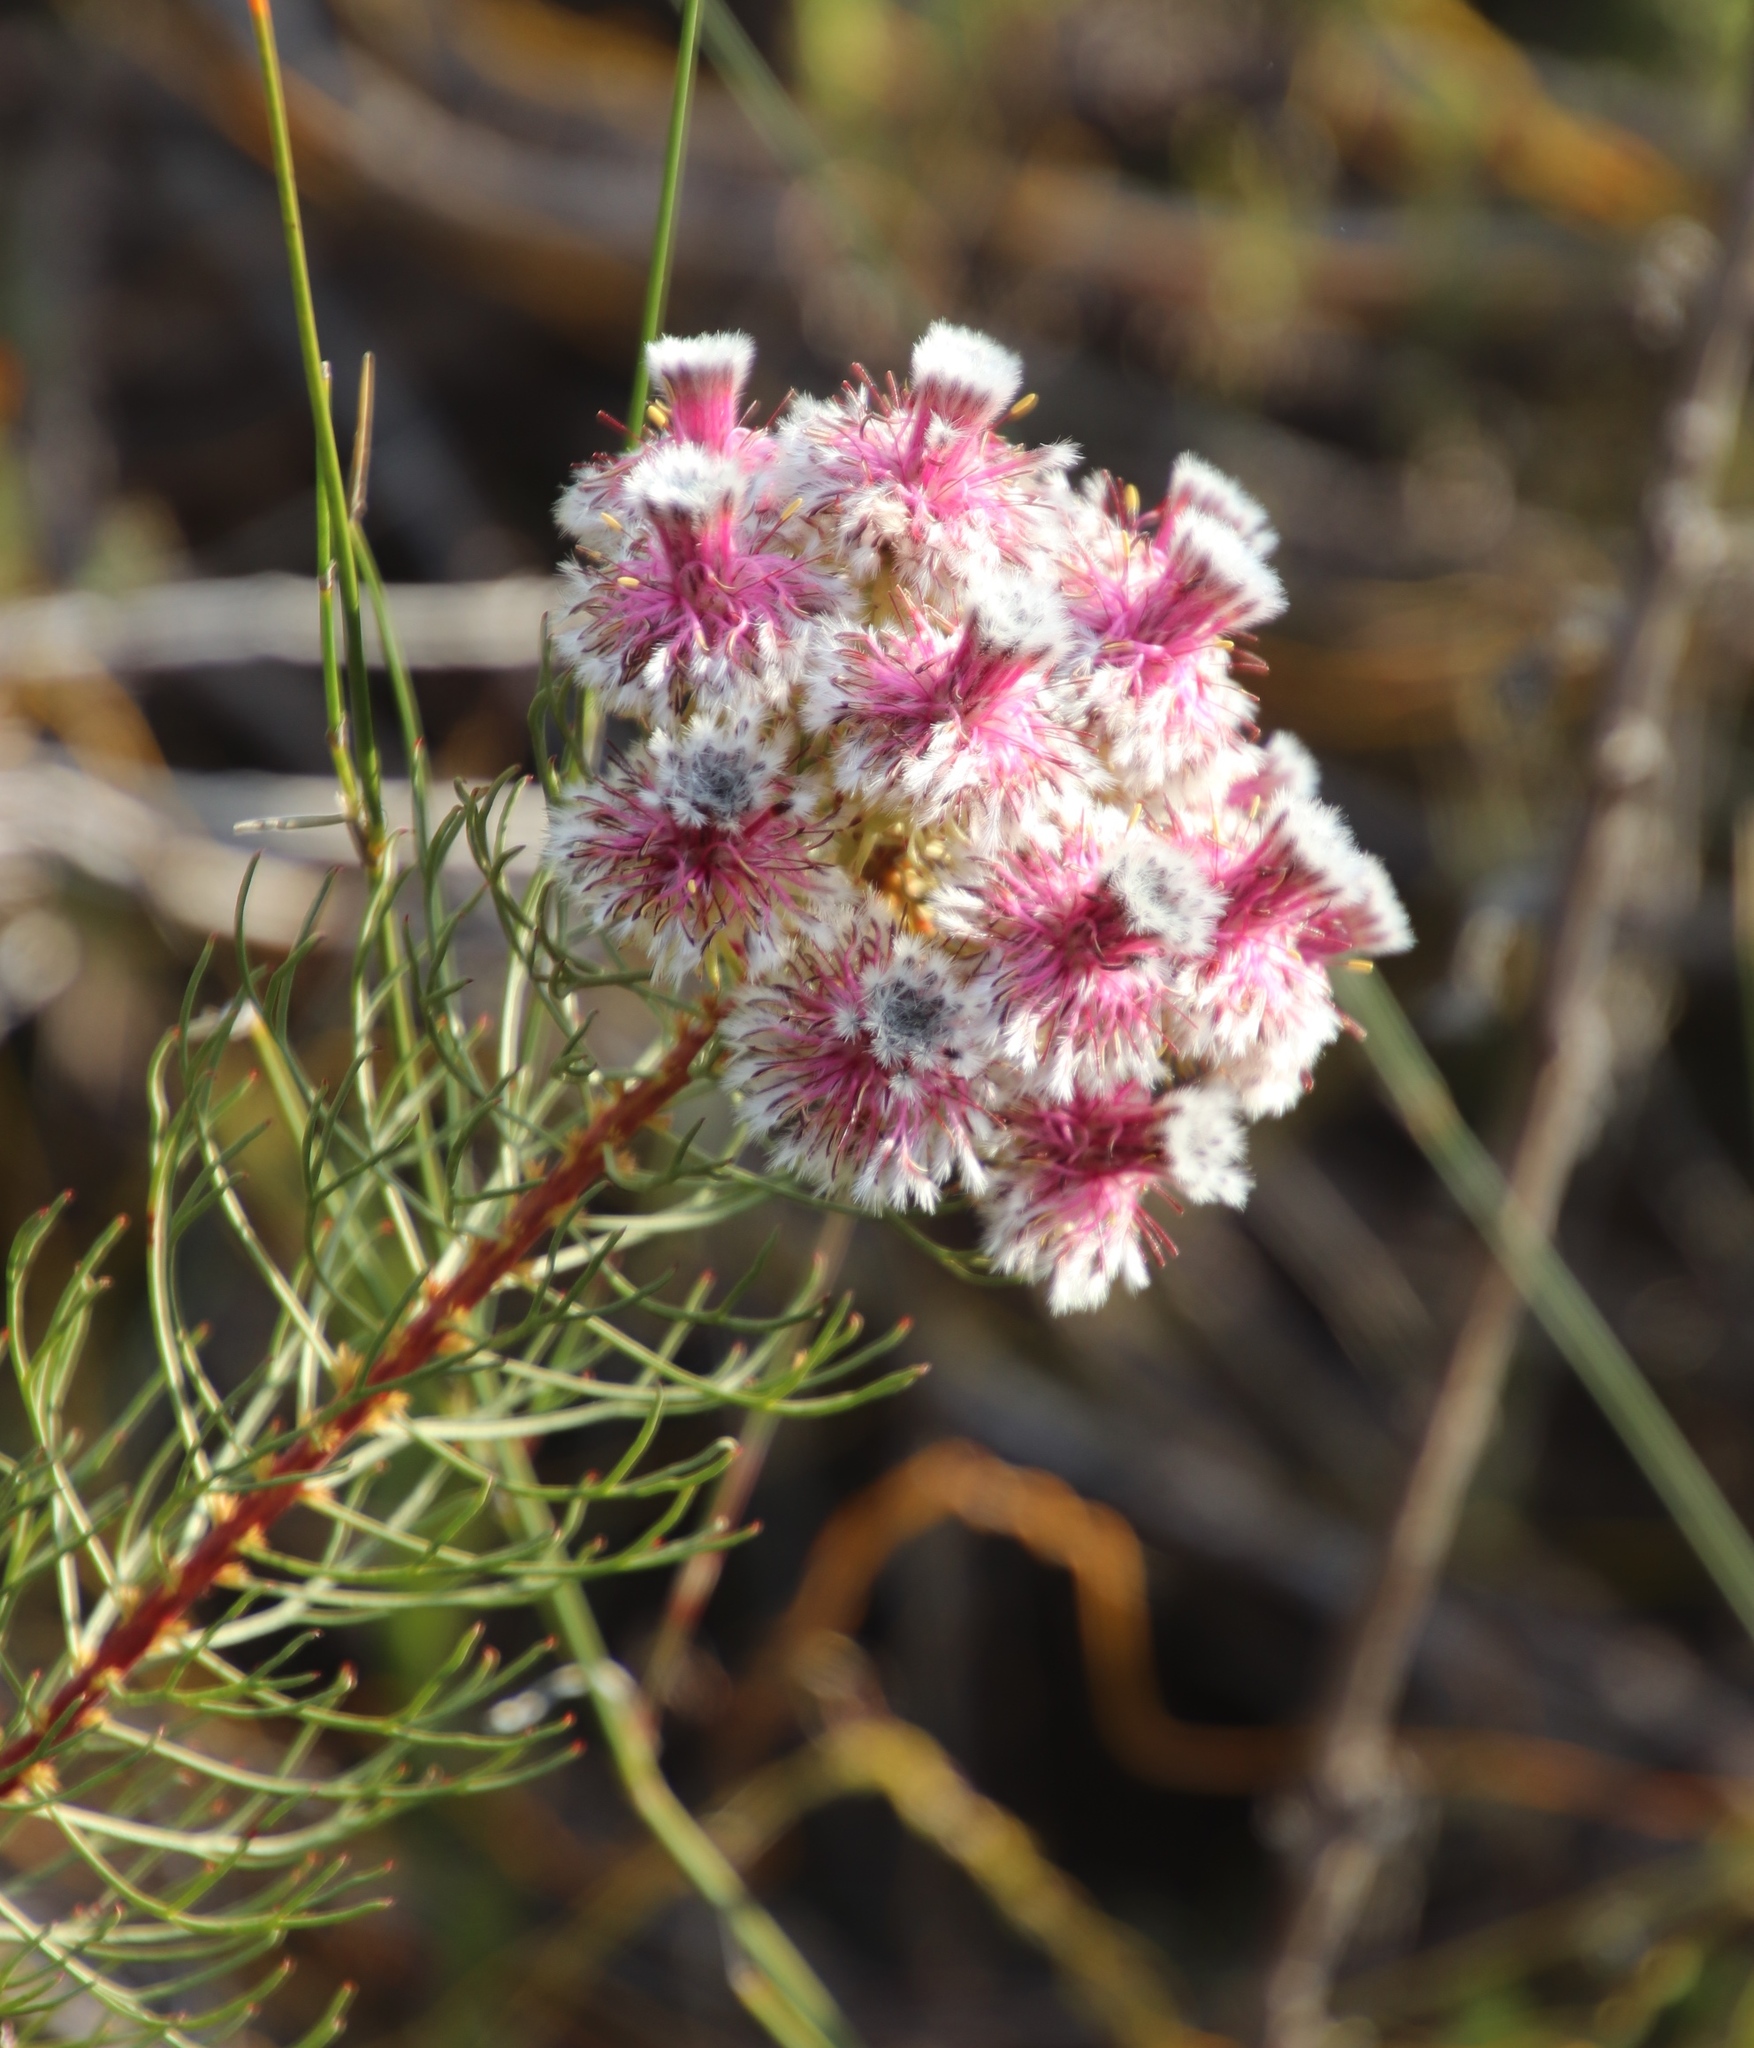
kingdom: Plantae
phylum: Tracheophyta
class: Magnoliopsida
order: Proteales
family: Proteaceae
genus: Serruria
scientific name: Serruria phylicoides
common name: Bearded spiderhead
